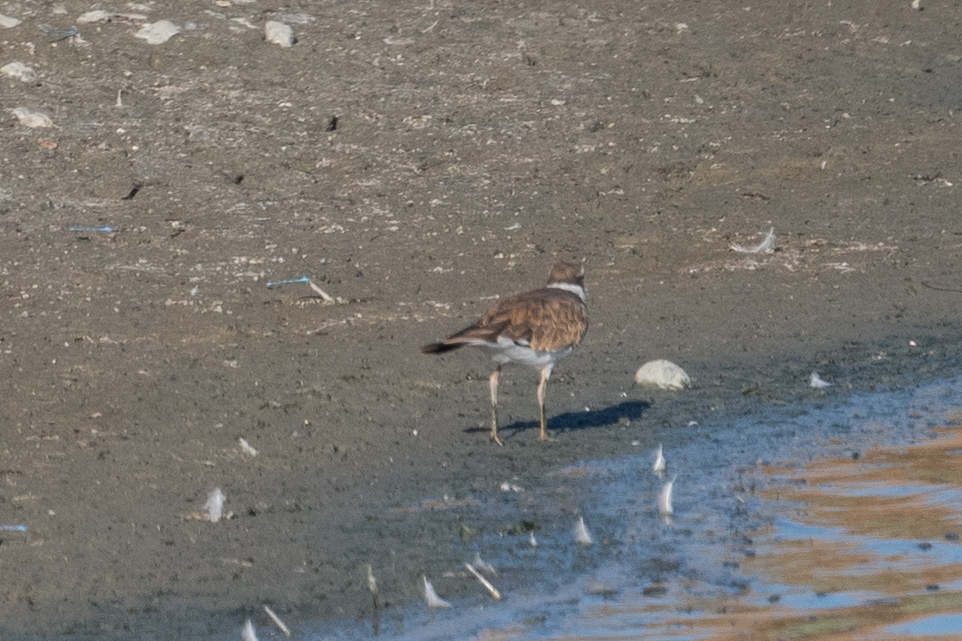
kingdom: Animalia
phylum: Chordata
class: Aves
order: Charadriiformes
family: Charadriidae
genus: Charadrius
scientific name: Charadrius vociferus
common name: Killdeer
